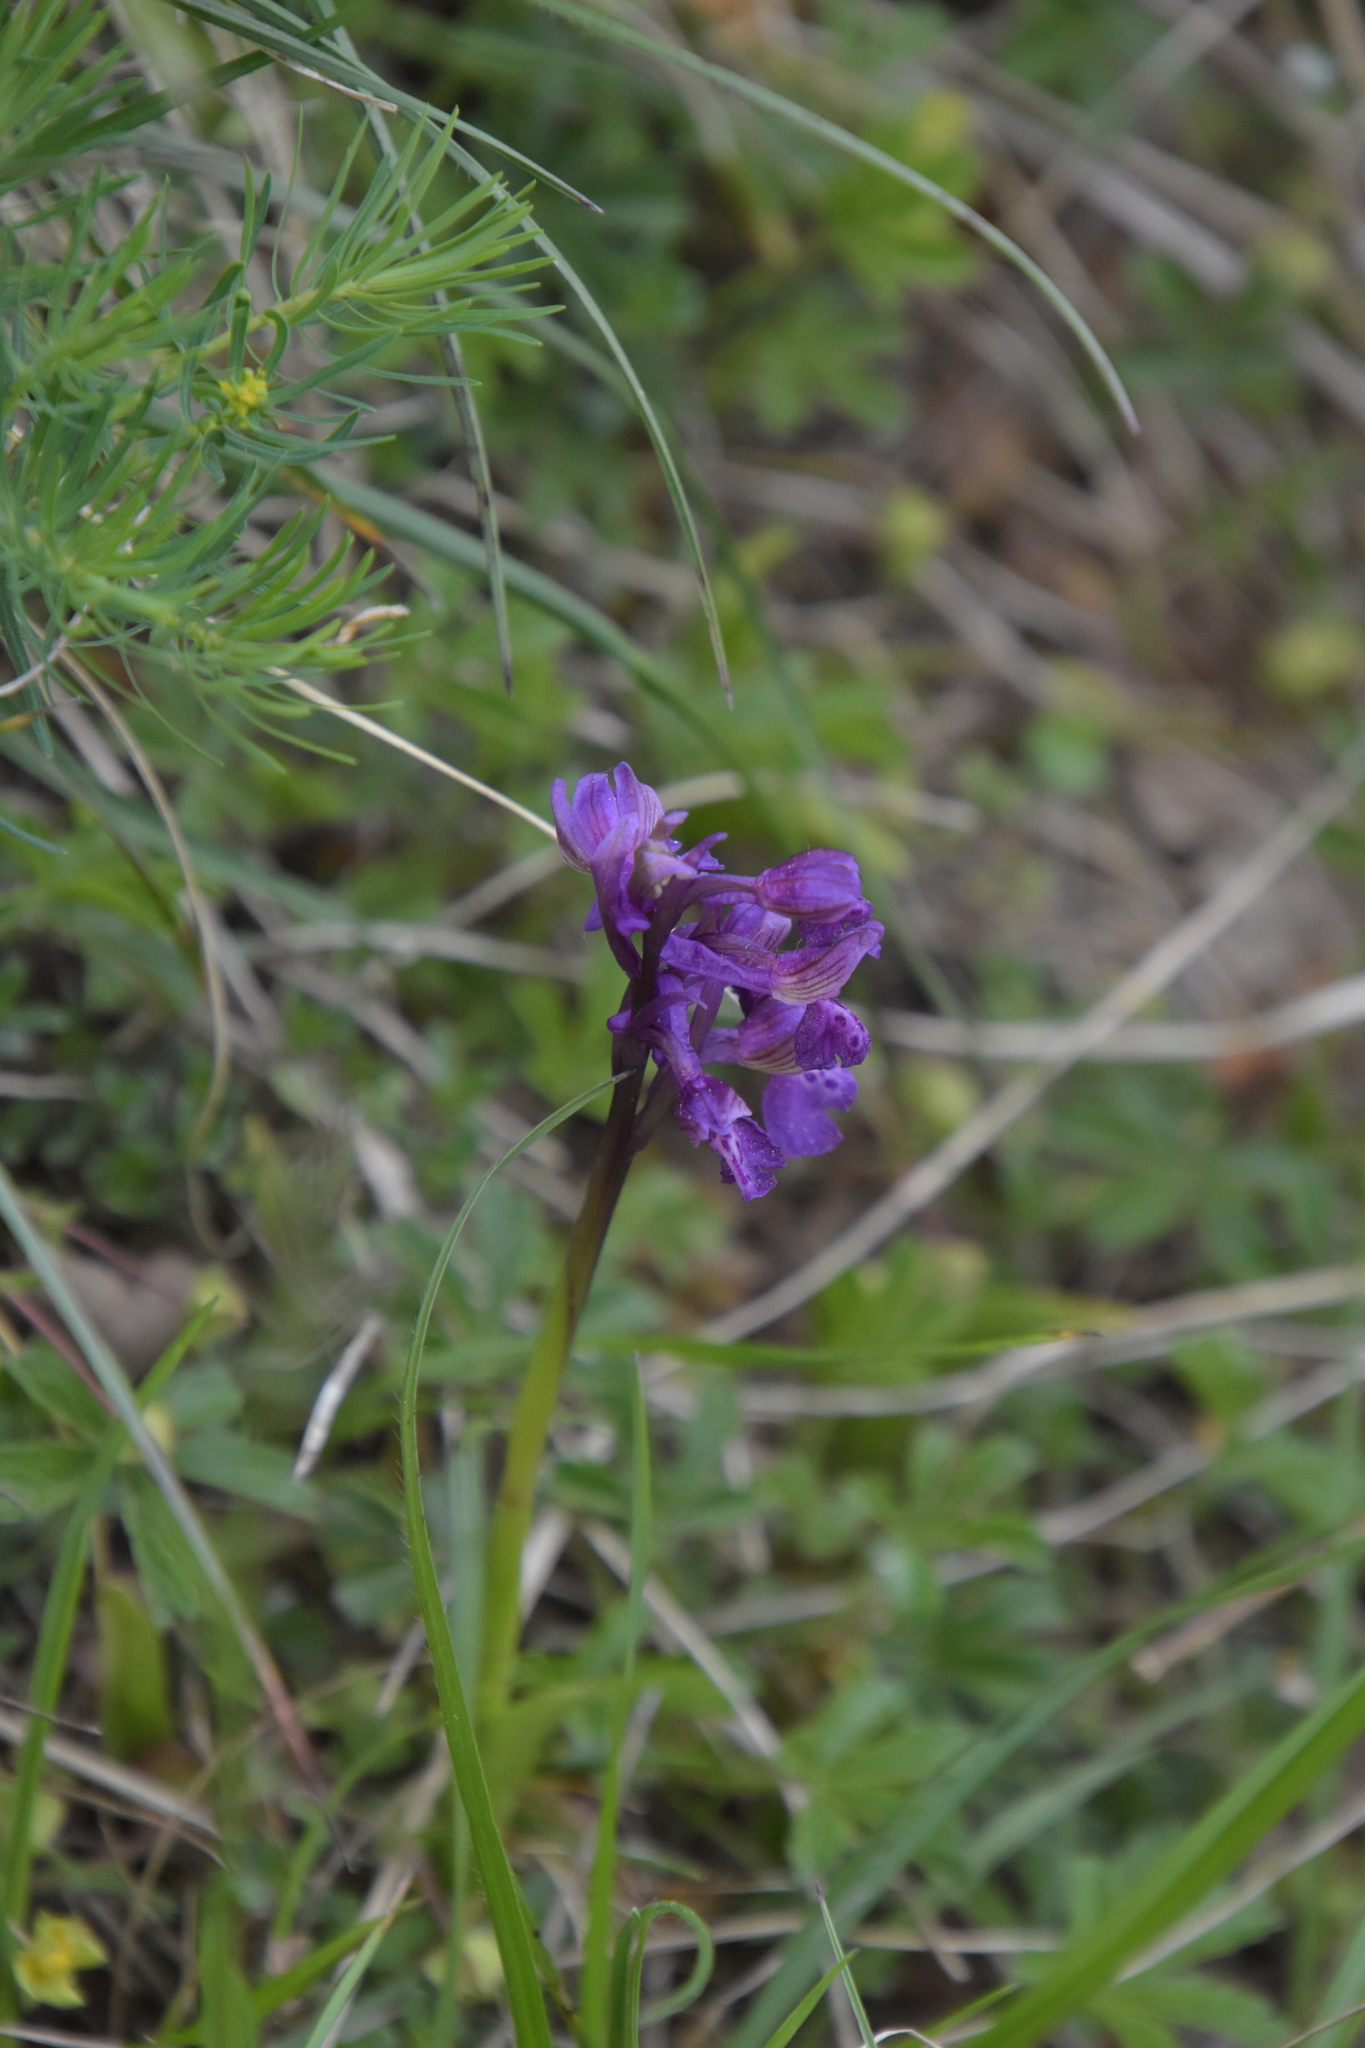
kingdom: Plantae
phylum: Tracheophyta
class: Liliopsida
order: Asparagales
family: Orchidaceae
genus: Anacamptis
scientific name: Anacamptis morio
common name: Green-winged orchid
